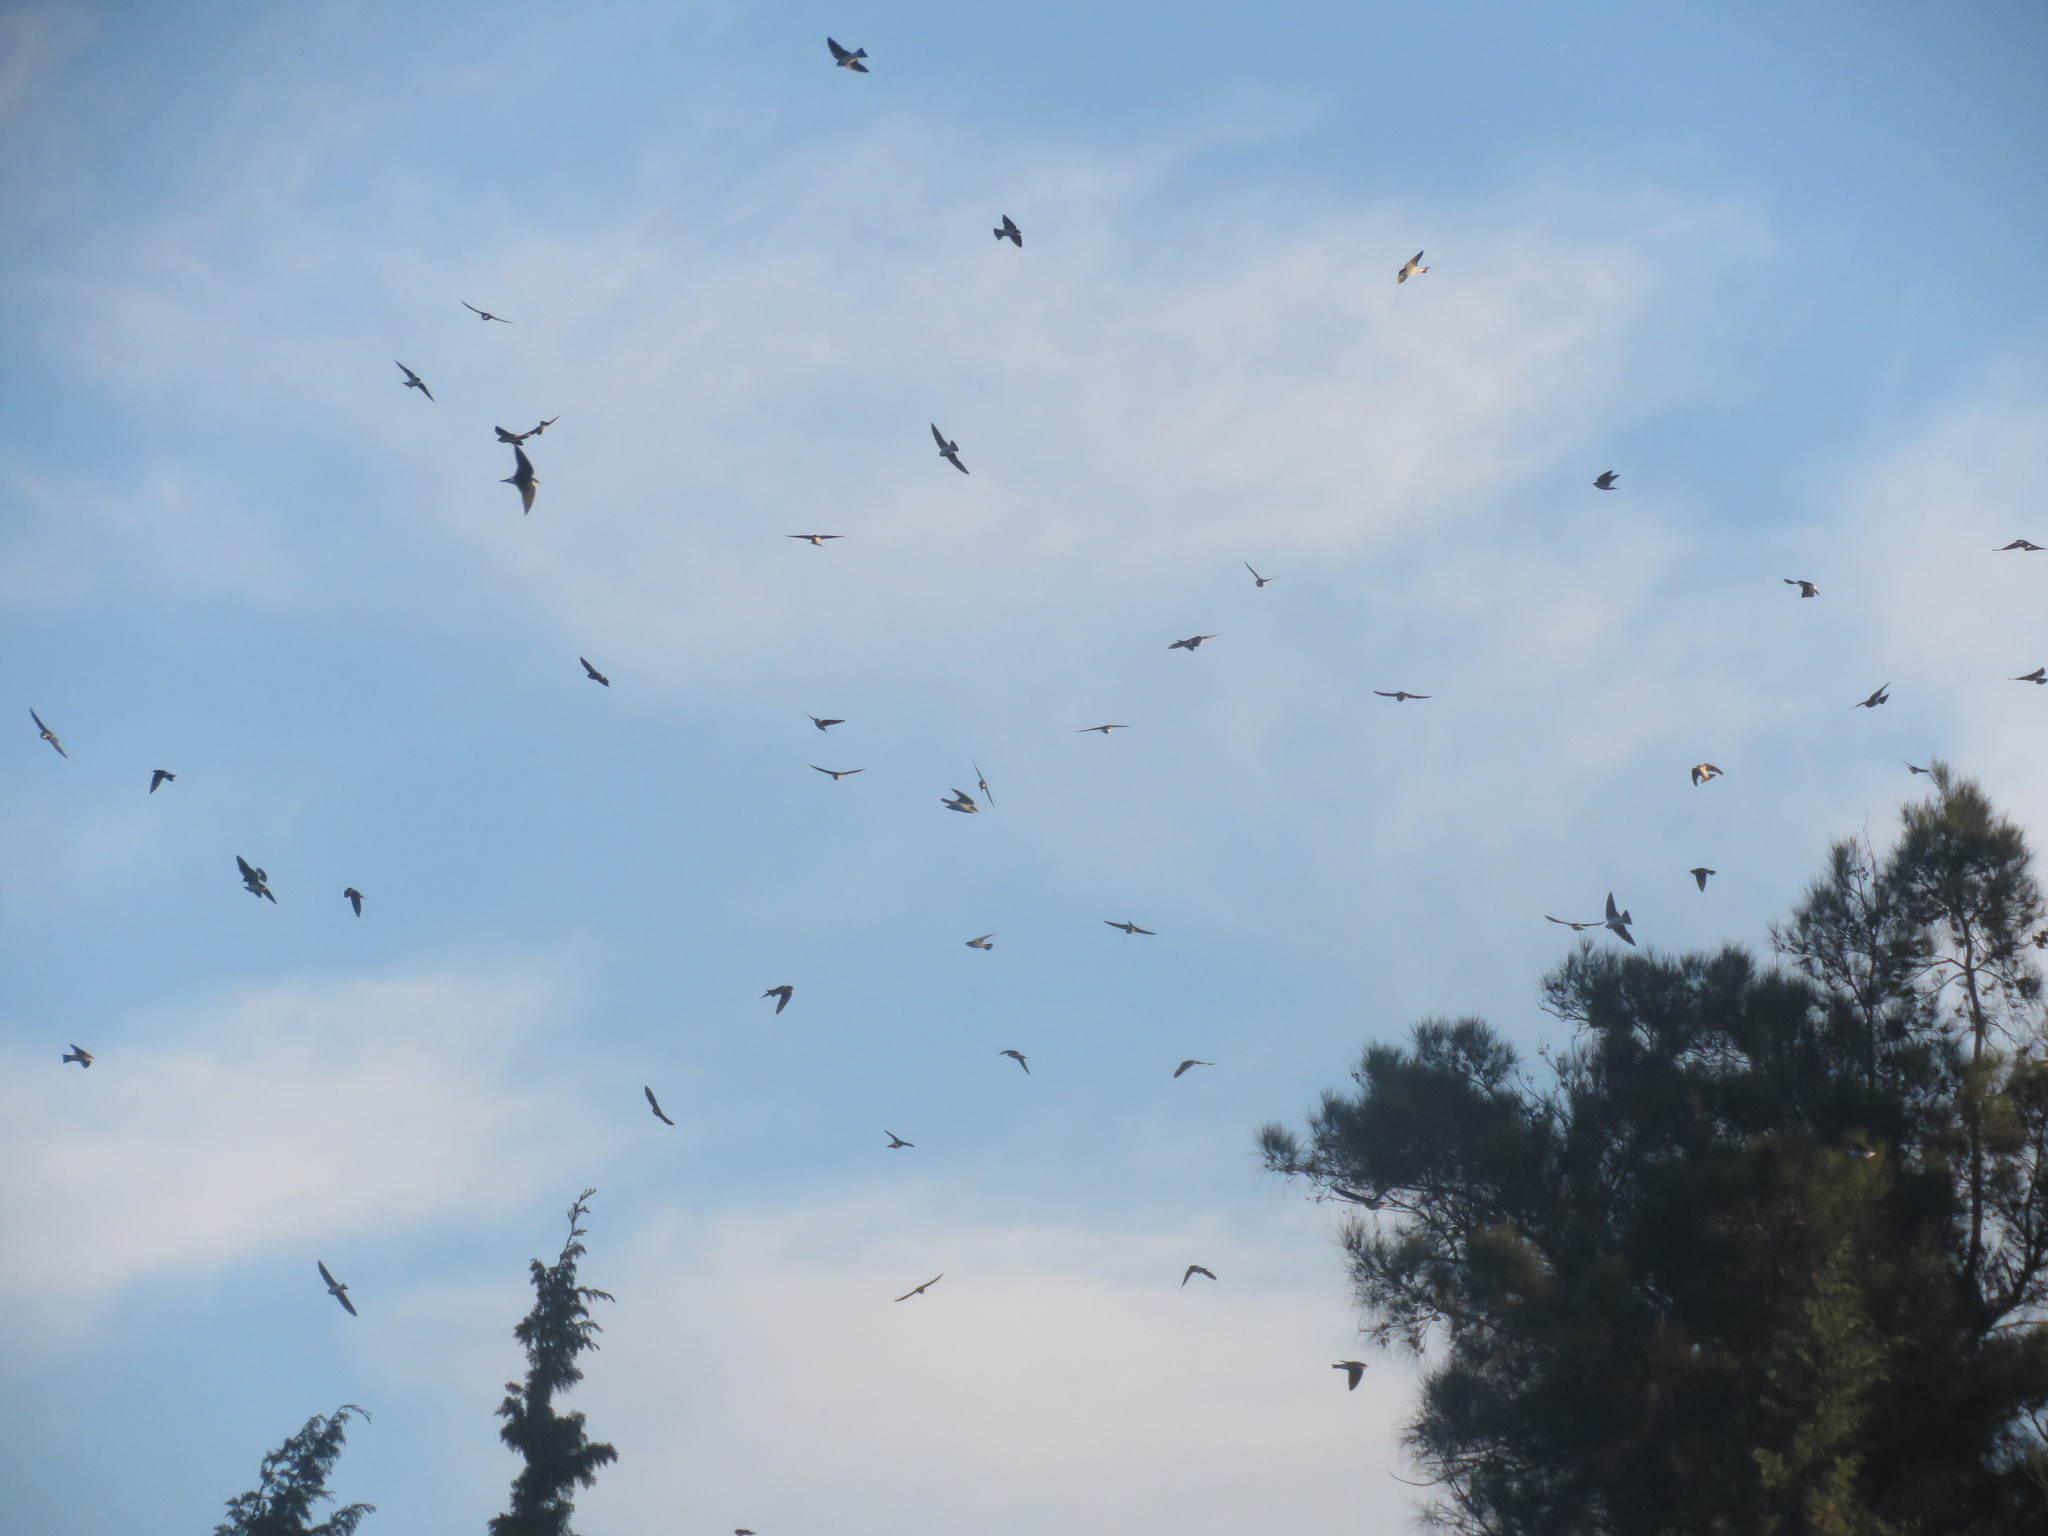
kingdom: Animalia
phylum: Chordata
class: Aves
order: Passeriformes
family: Hirundinidae
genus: Tachycineta
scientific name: Tachycineta leucorrhoa
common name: White-rumped swallow
